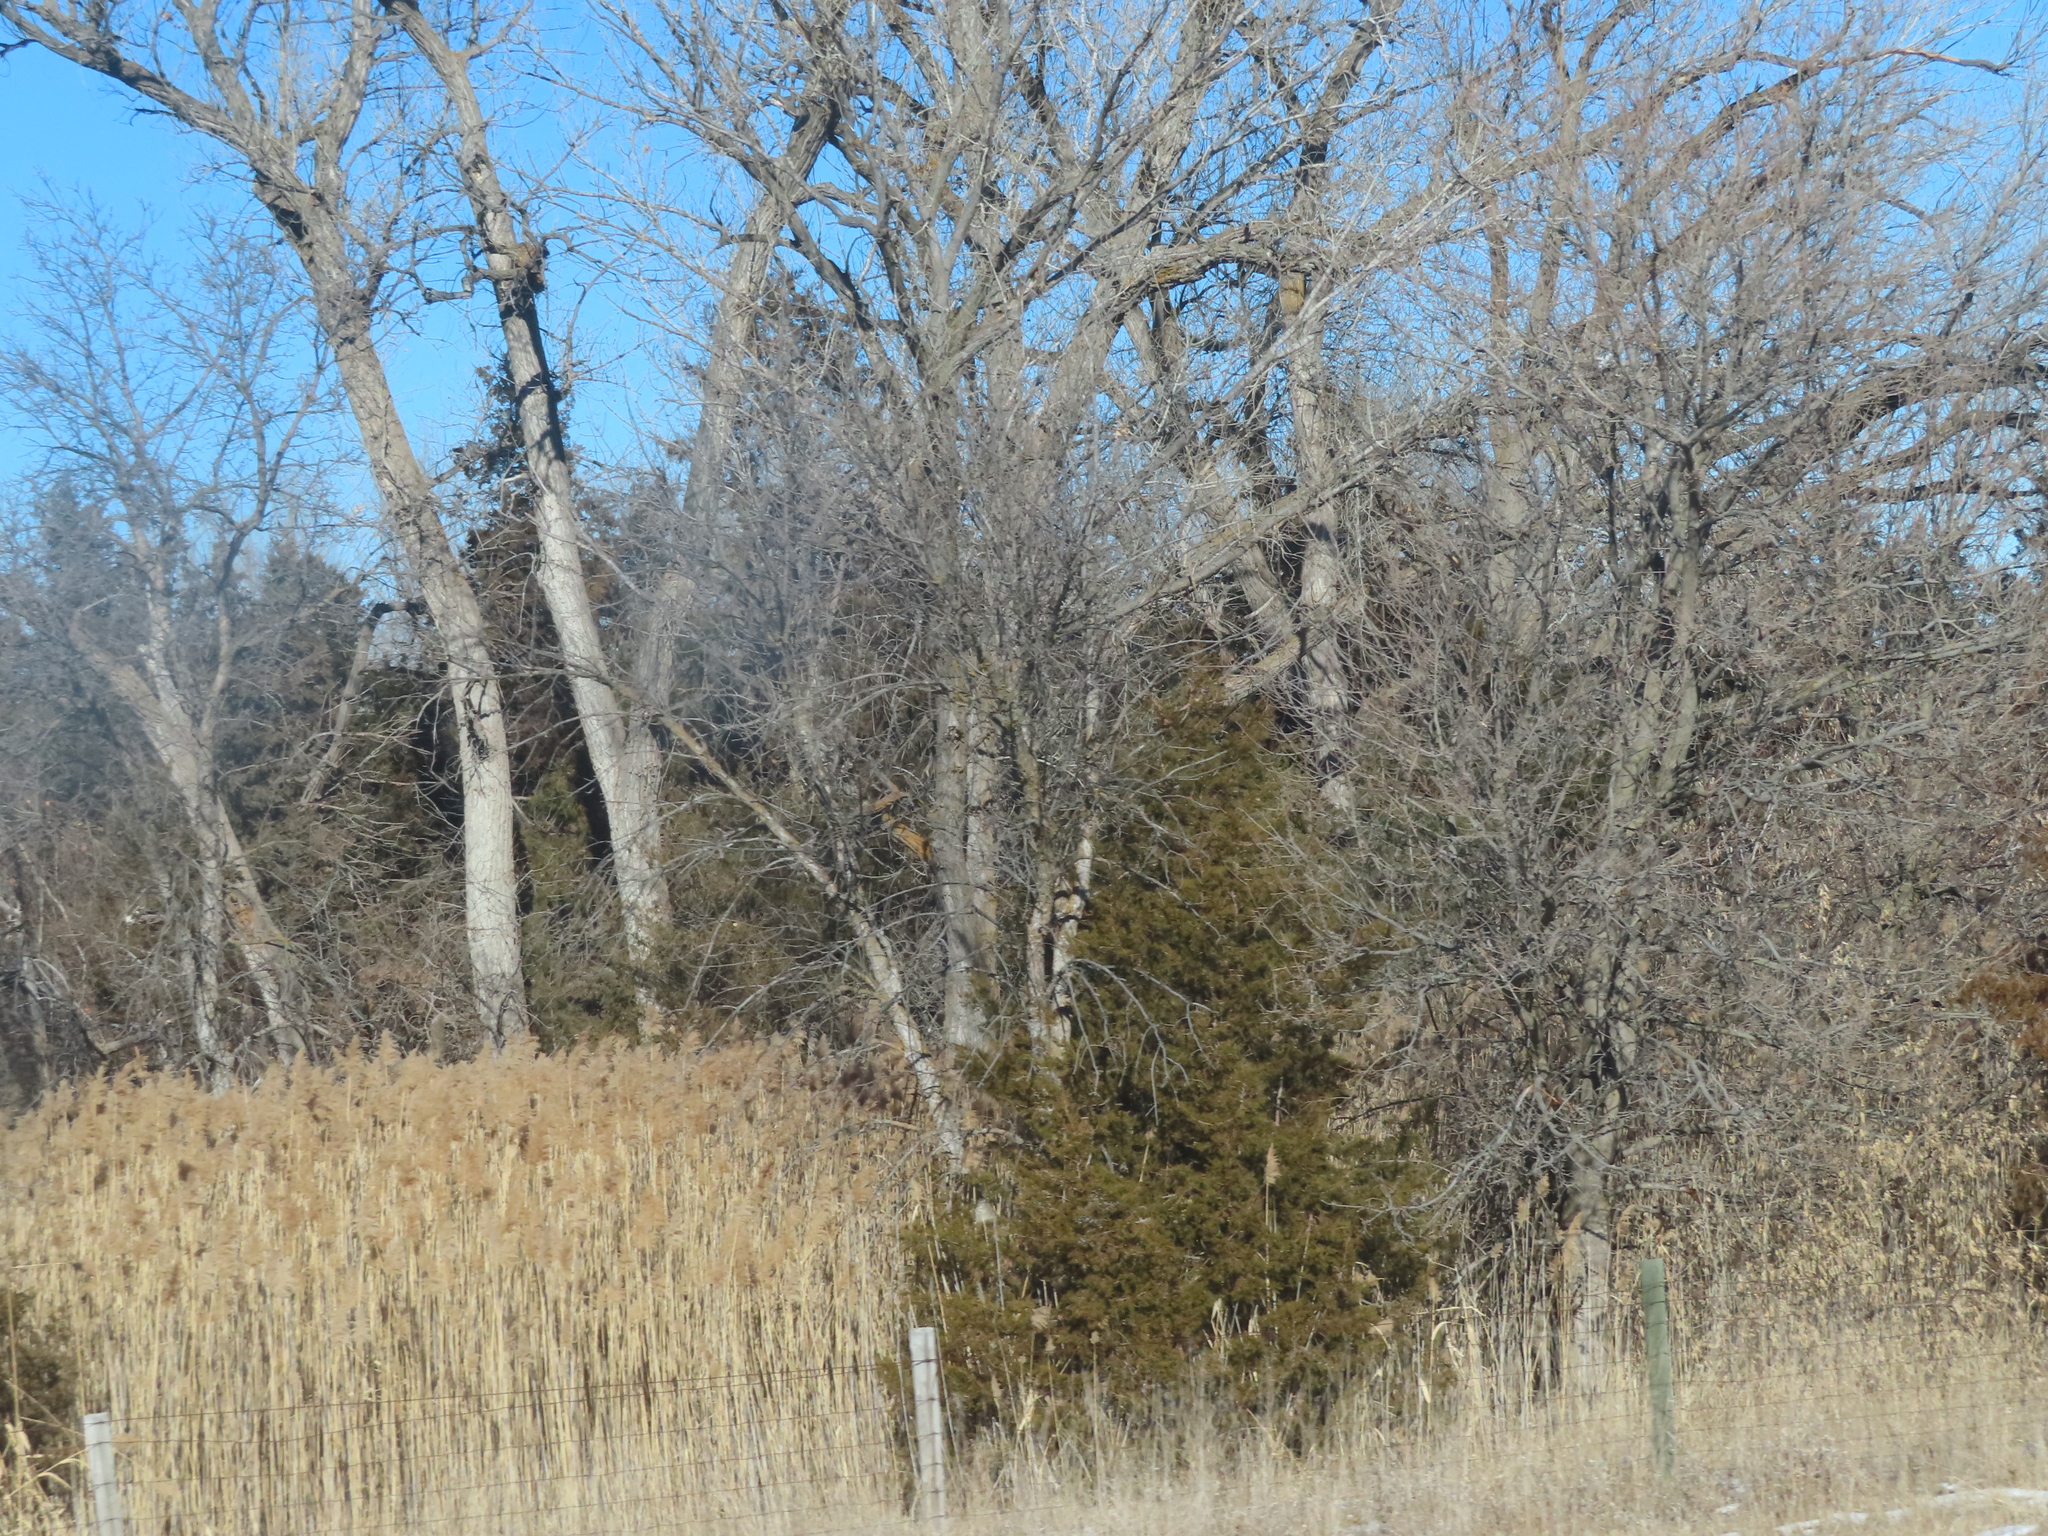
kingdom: Plantae
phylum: Tracheophyta
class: Liliopsida
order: Poales
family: Poaceae
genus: Phragmites
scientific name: Phragmites australis
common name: Common reed
